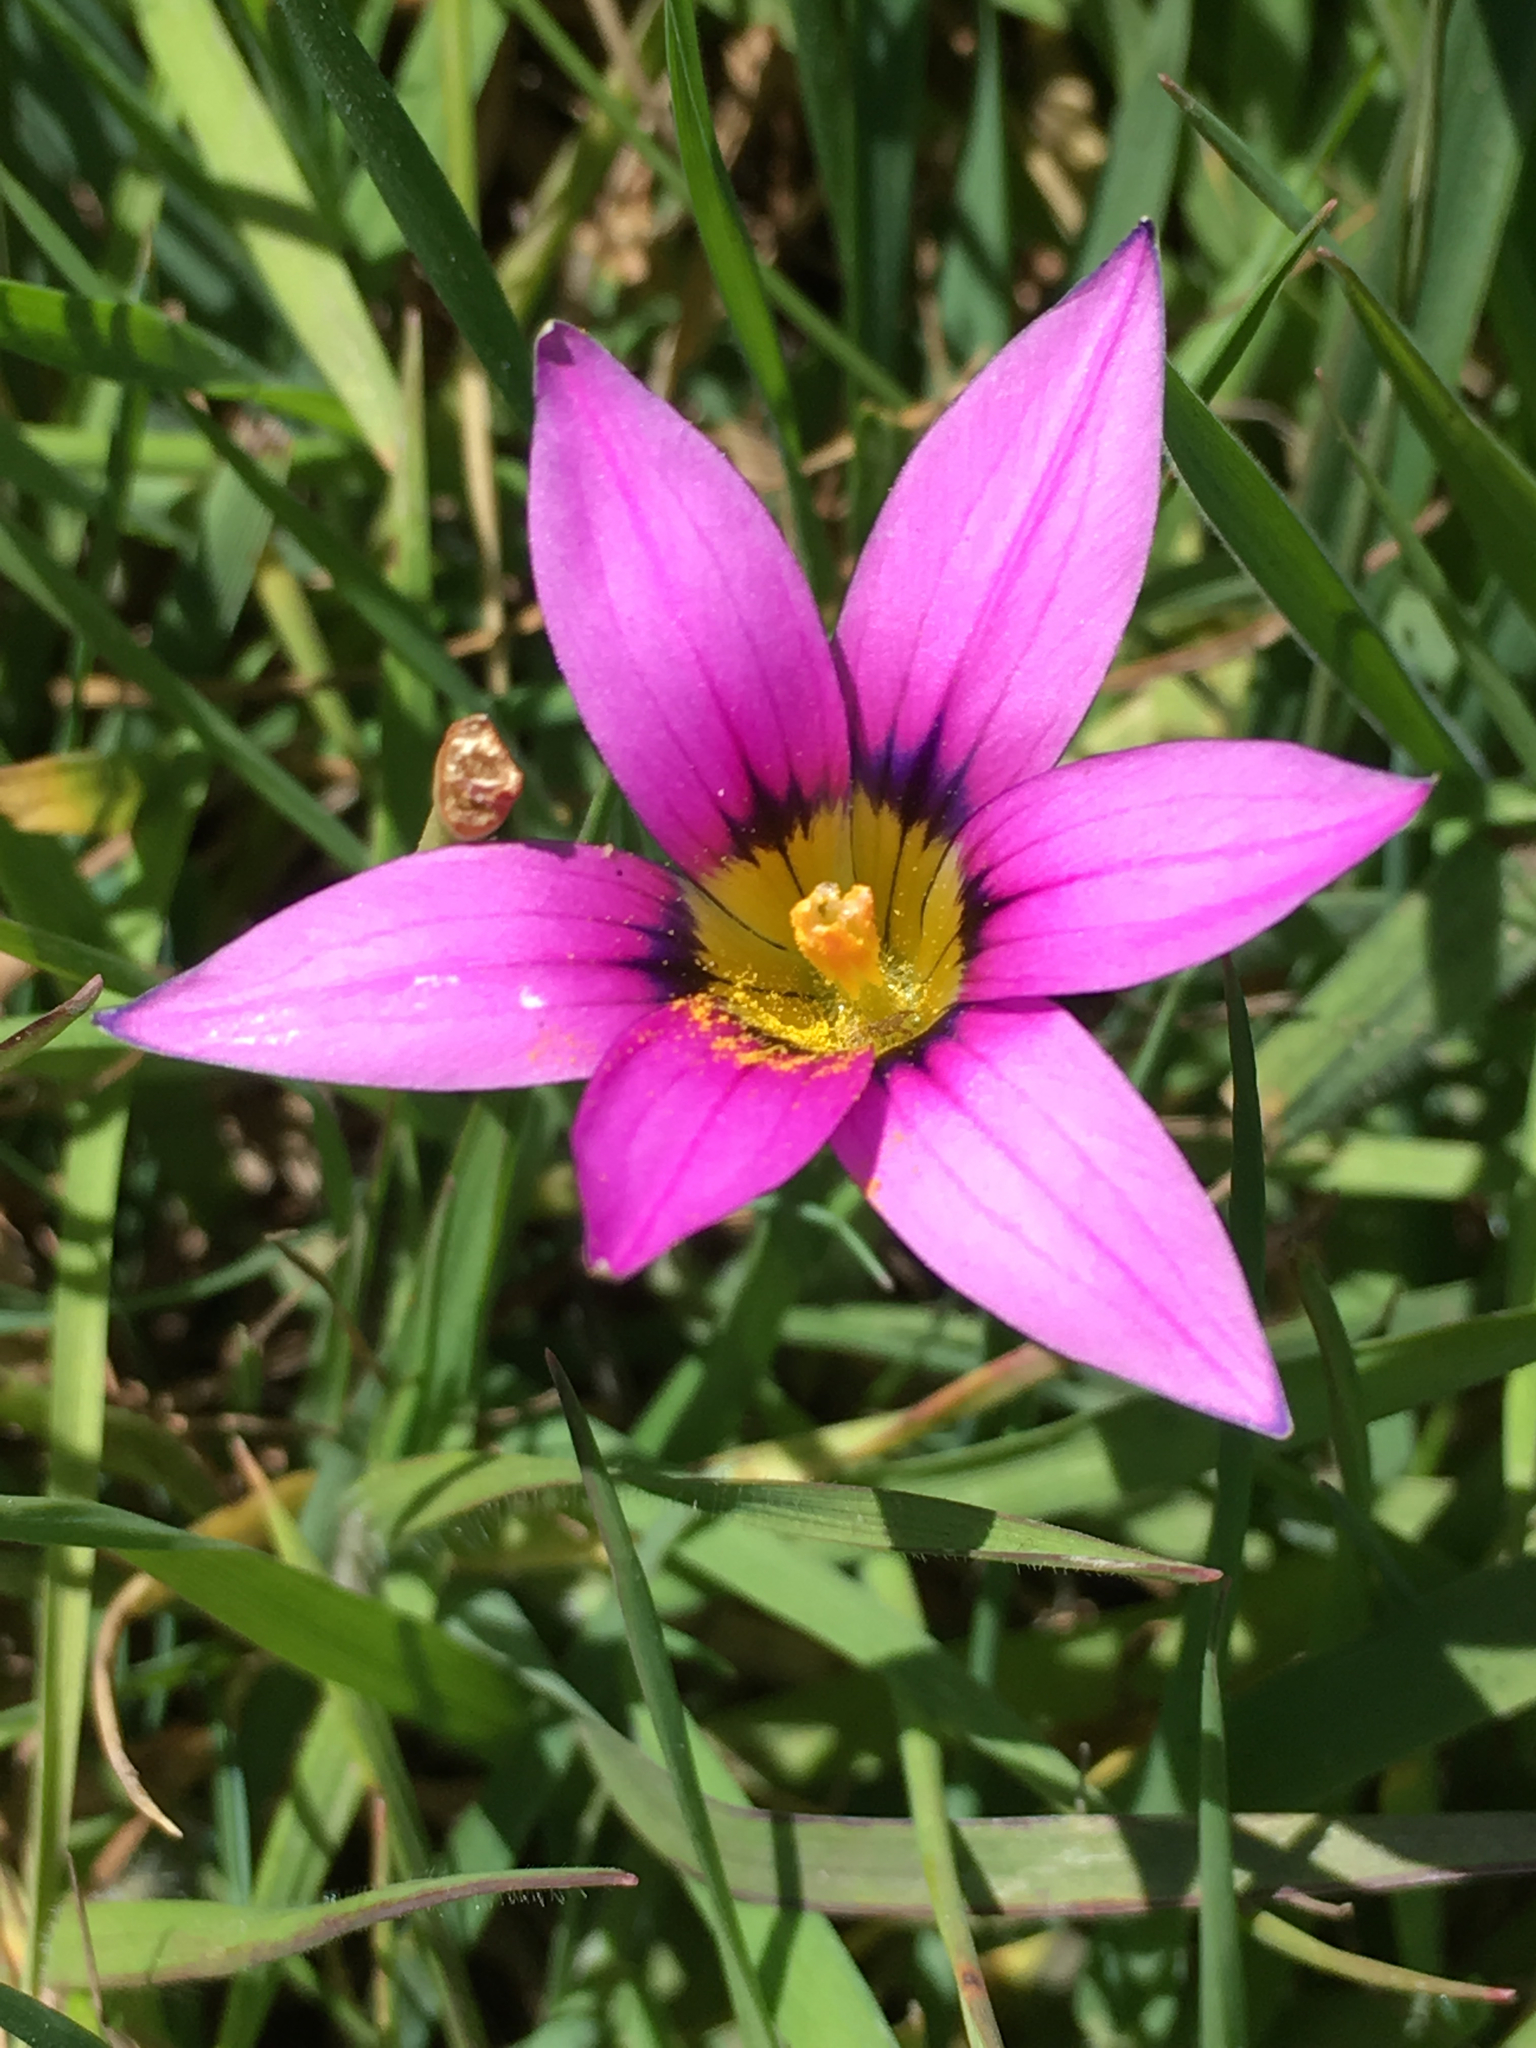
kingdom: Plantae
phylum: Tracheophyta
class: Liliopsida
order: Asparagales
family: Iridaceae
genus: Romulea
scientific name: Romulea rosea
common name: Oniongrass
